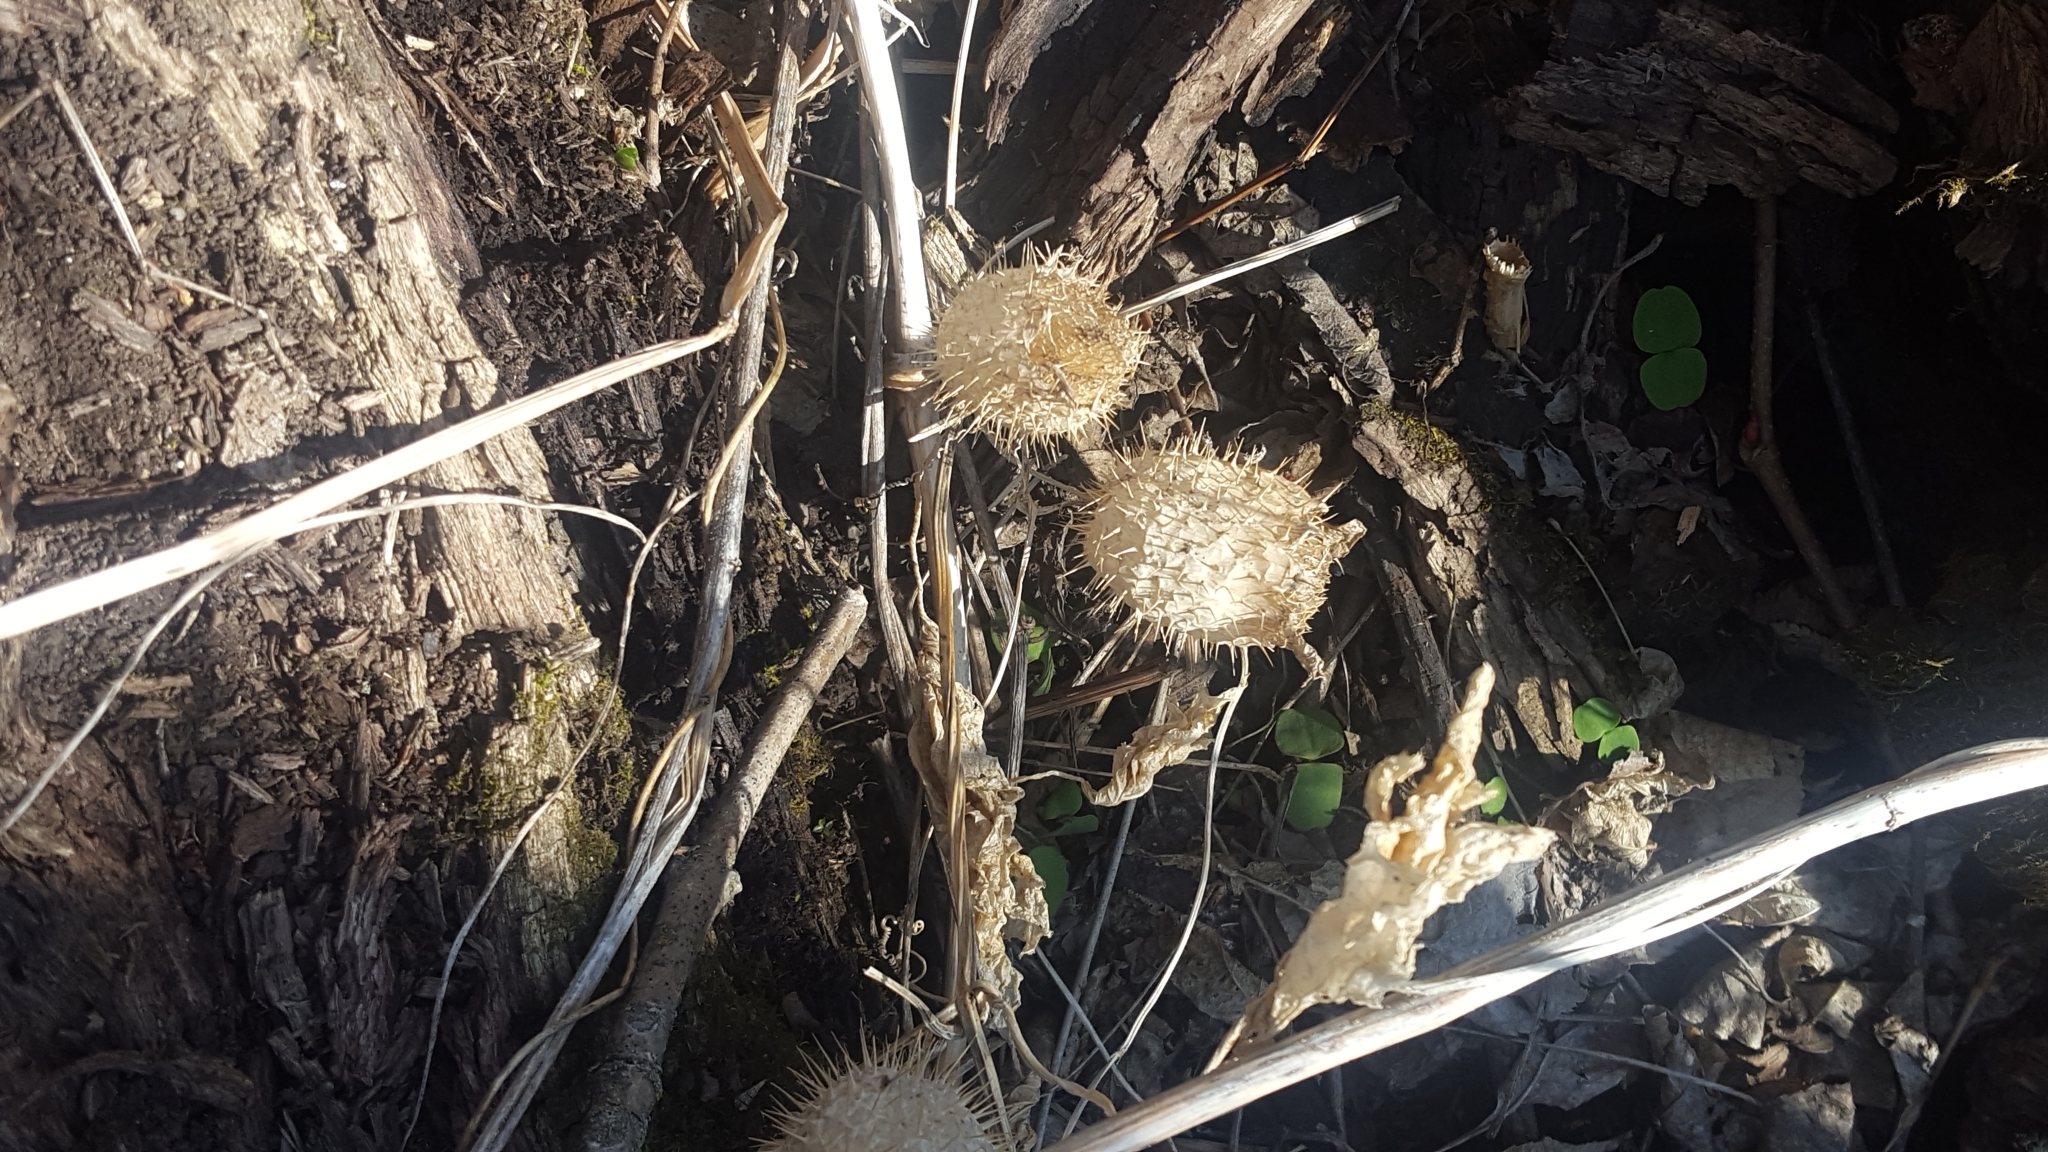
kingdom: Plantae
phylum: Tracheophyta
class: Magnoliopsida
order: Cucurbitales
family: Cucurbitaceae
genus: Echinocystis
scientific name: Echinocystis lobata
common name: Wild cucumber
